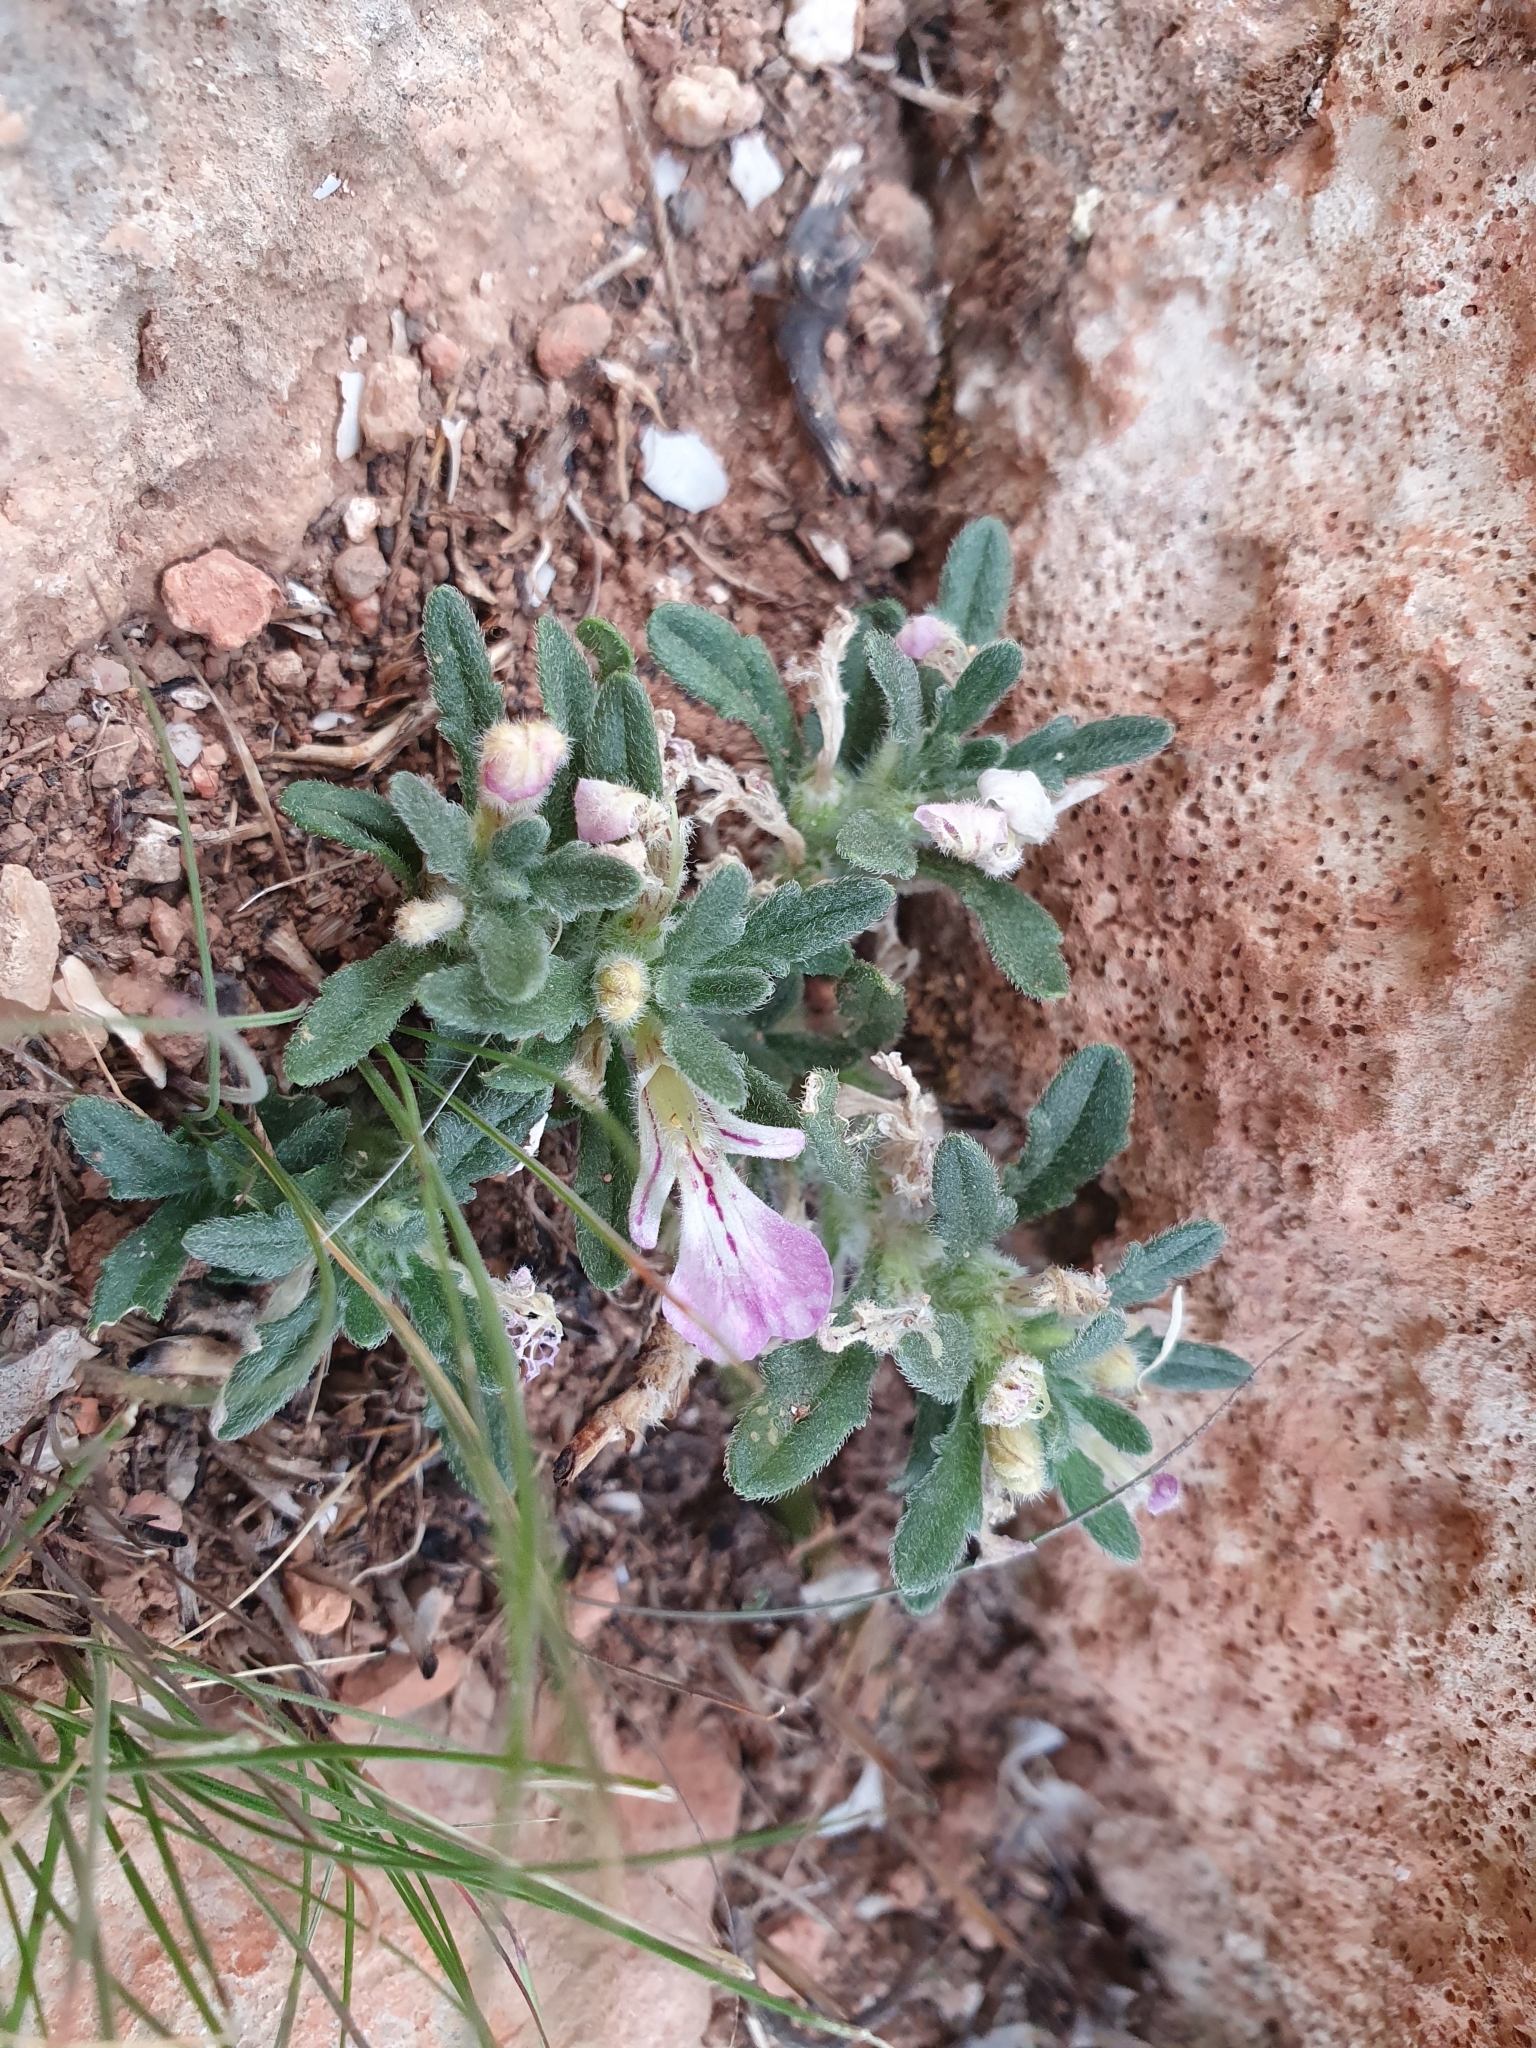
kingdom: Plantae
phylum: Tracheophyta
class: Magnoliopsida
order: Lamiales
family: Lamiaceae
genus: Ajuga
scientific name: Ajuga iva
